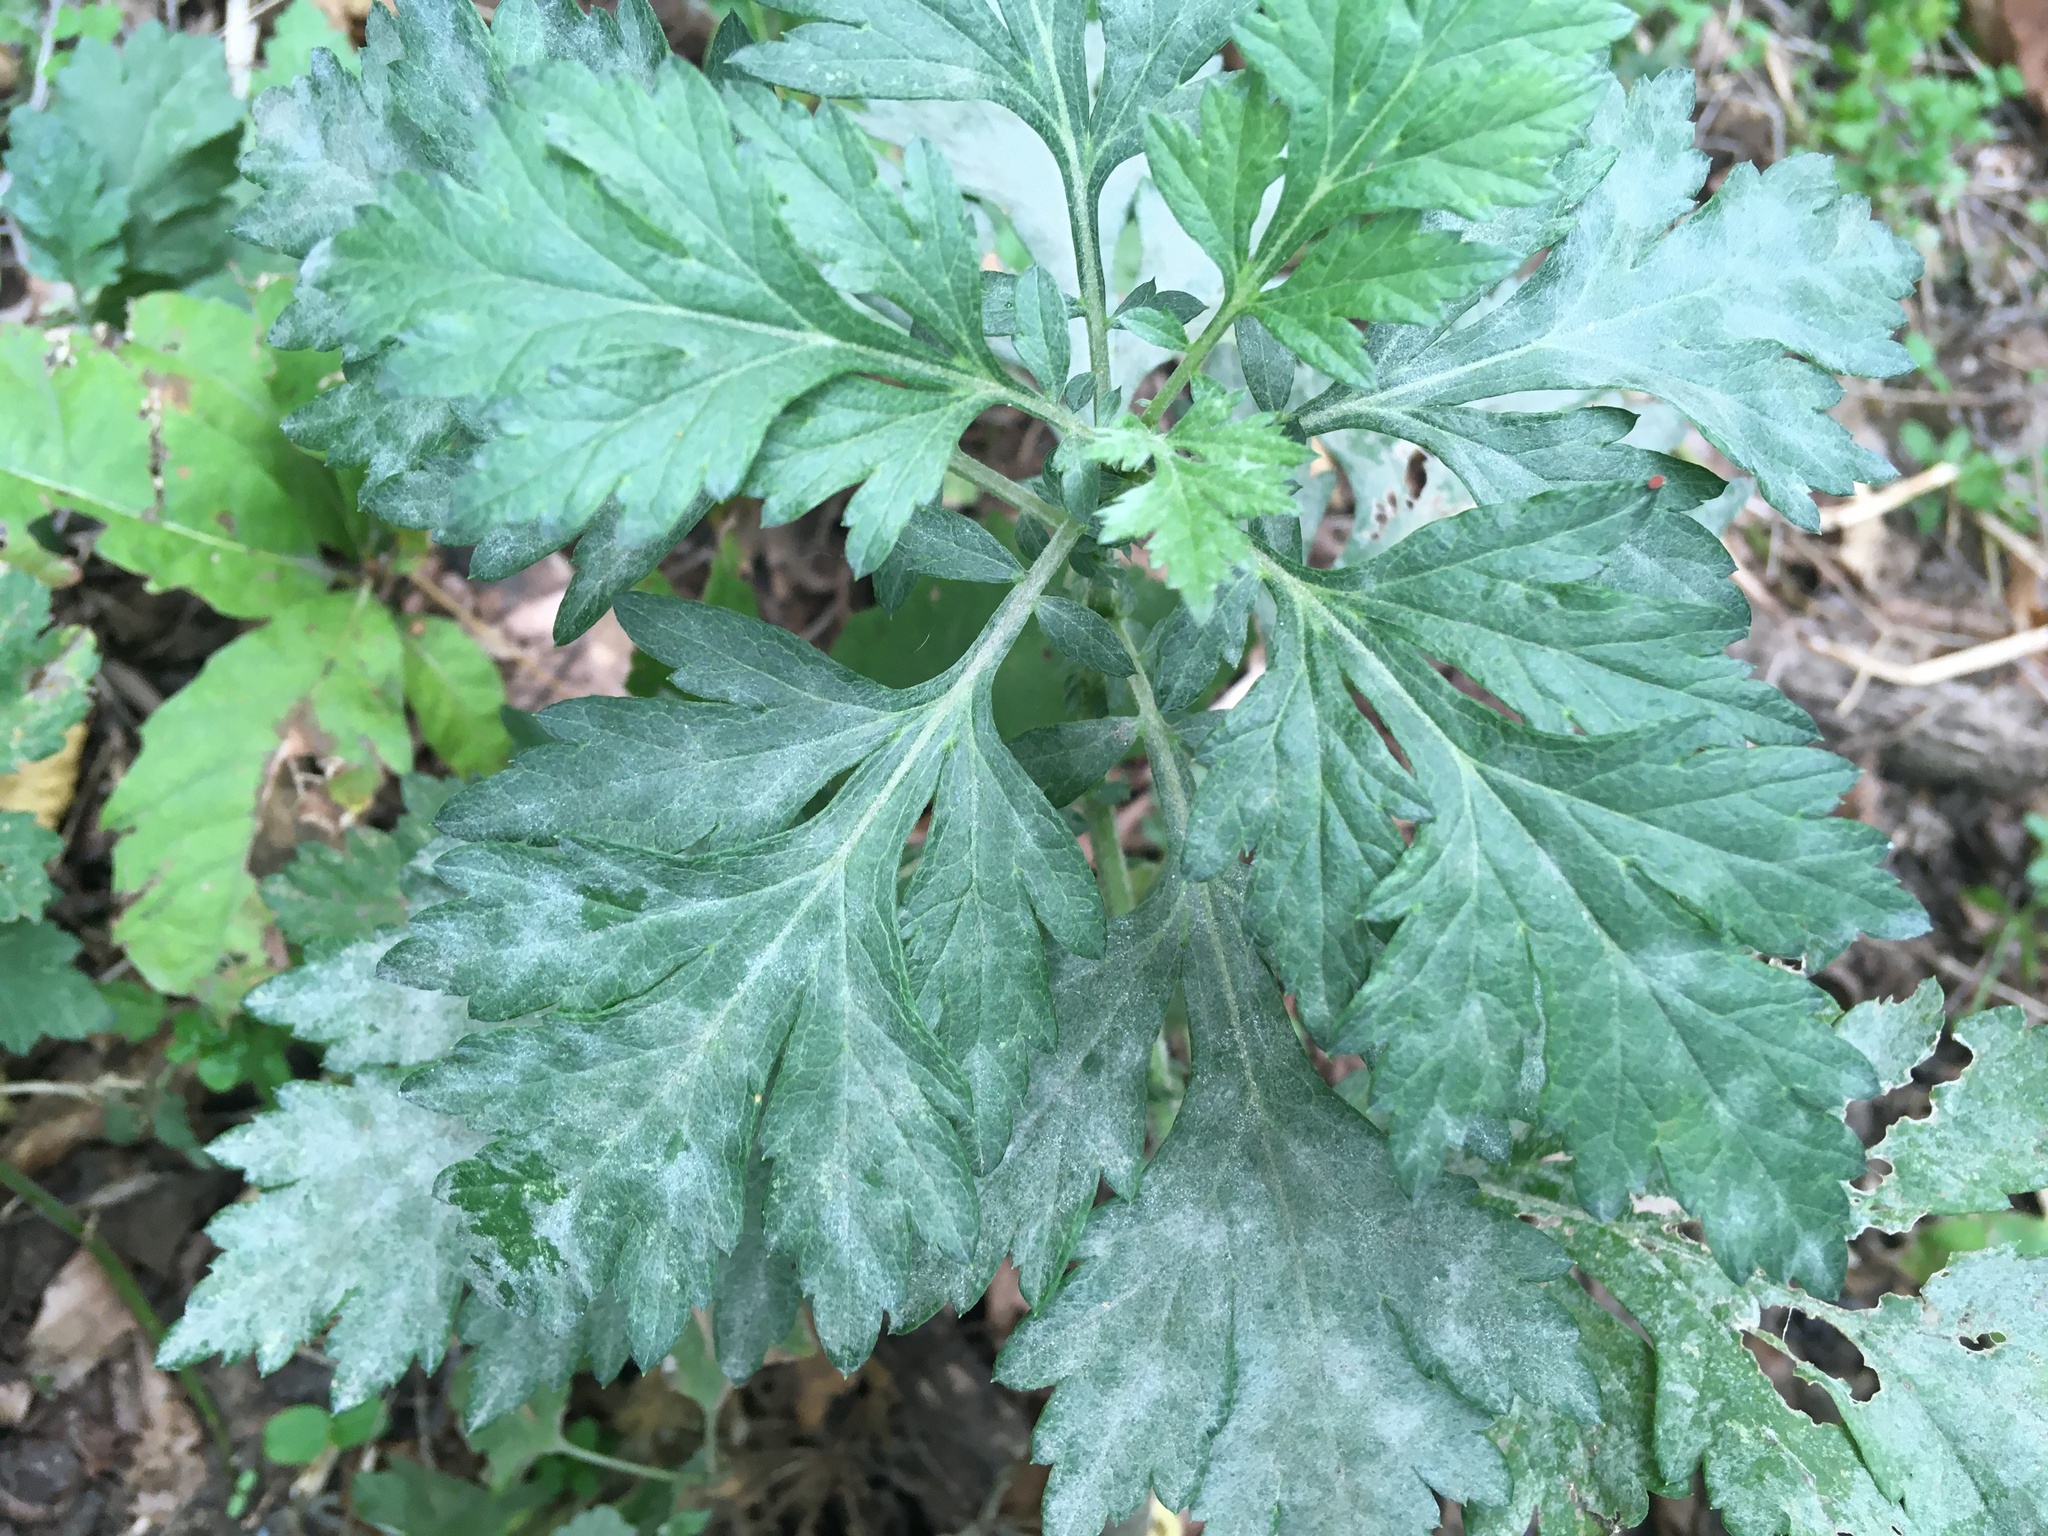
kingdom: Plantae
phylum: Tracheophyta
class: Magnoliopsida
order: Asterales
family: Asteraceae
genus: Artemisia
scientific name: Artemisia vulgaris
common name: Mugwort
